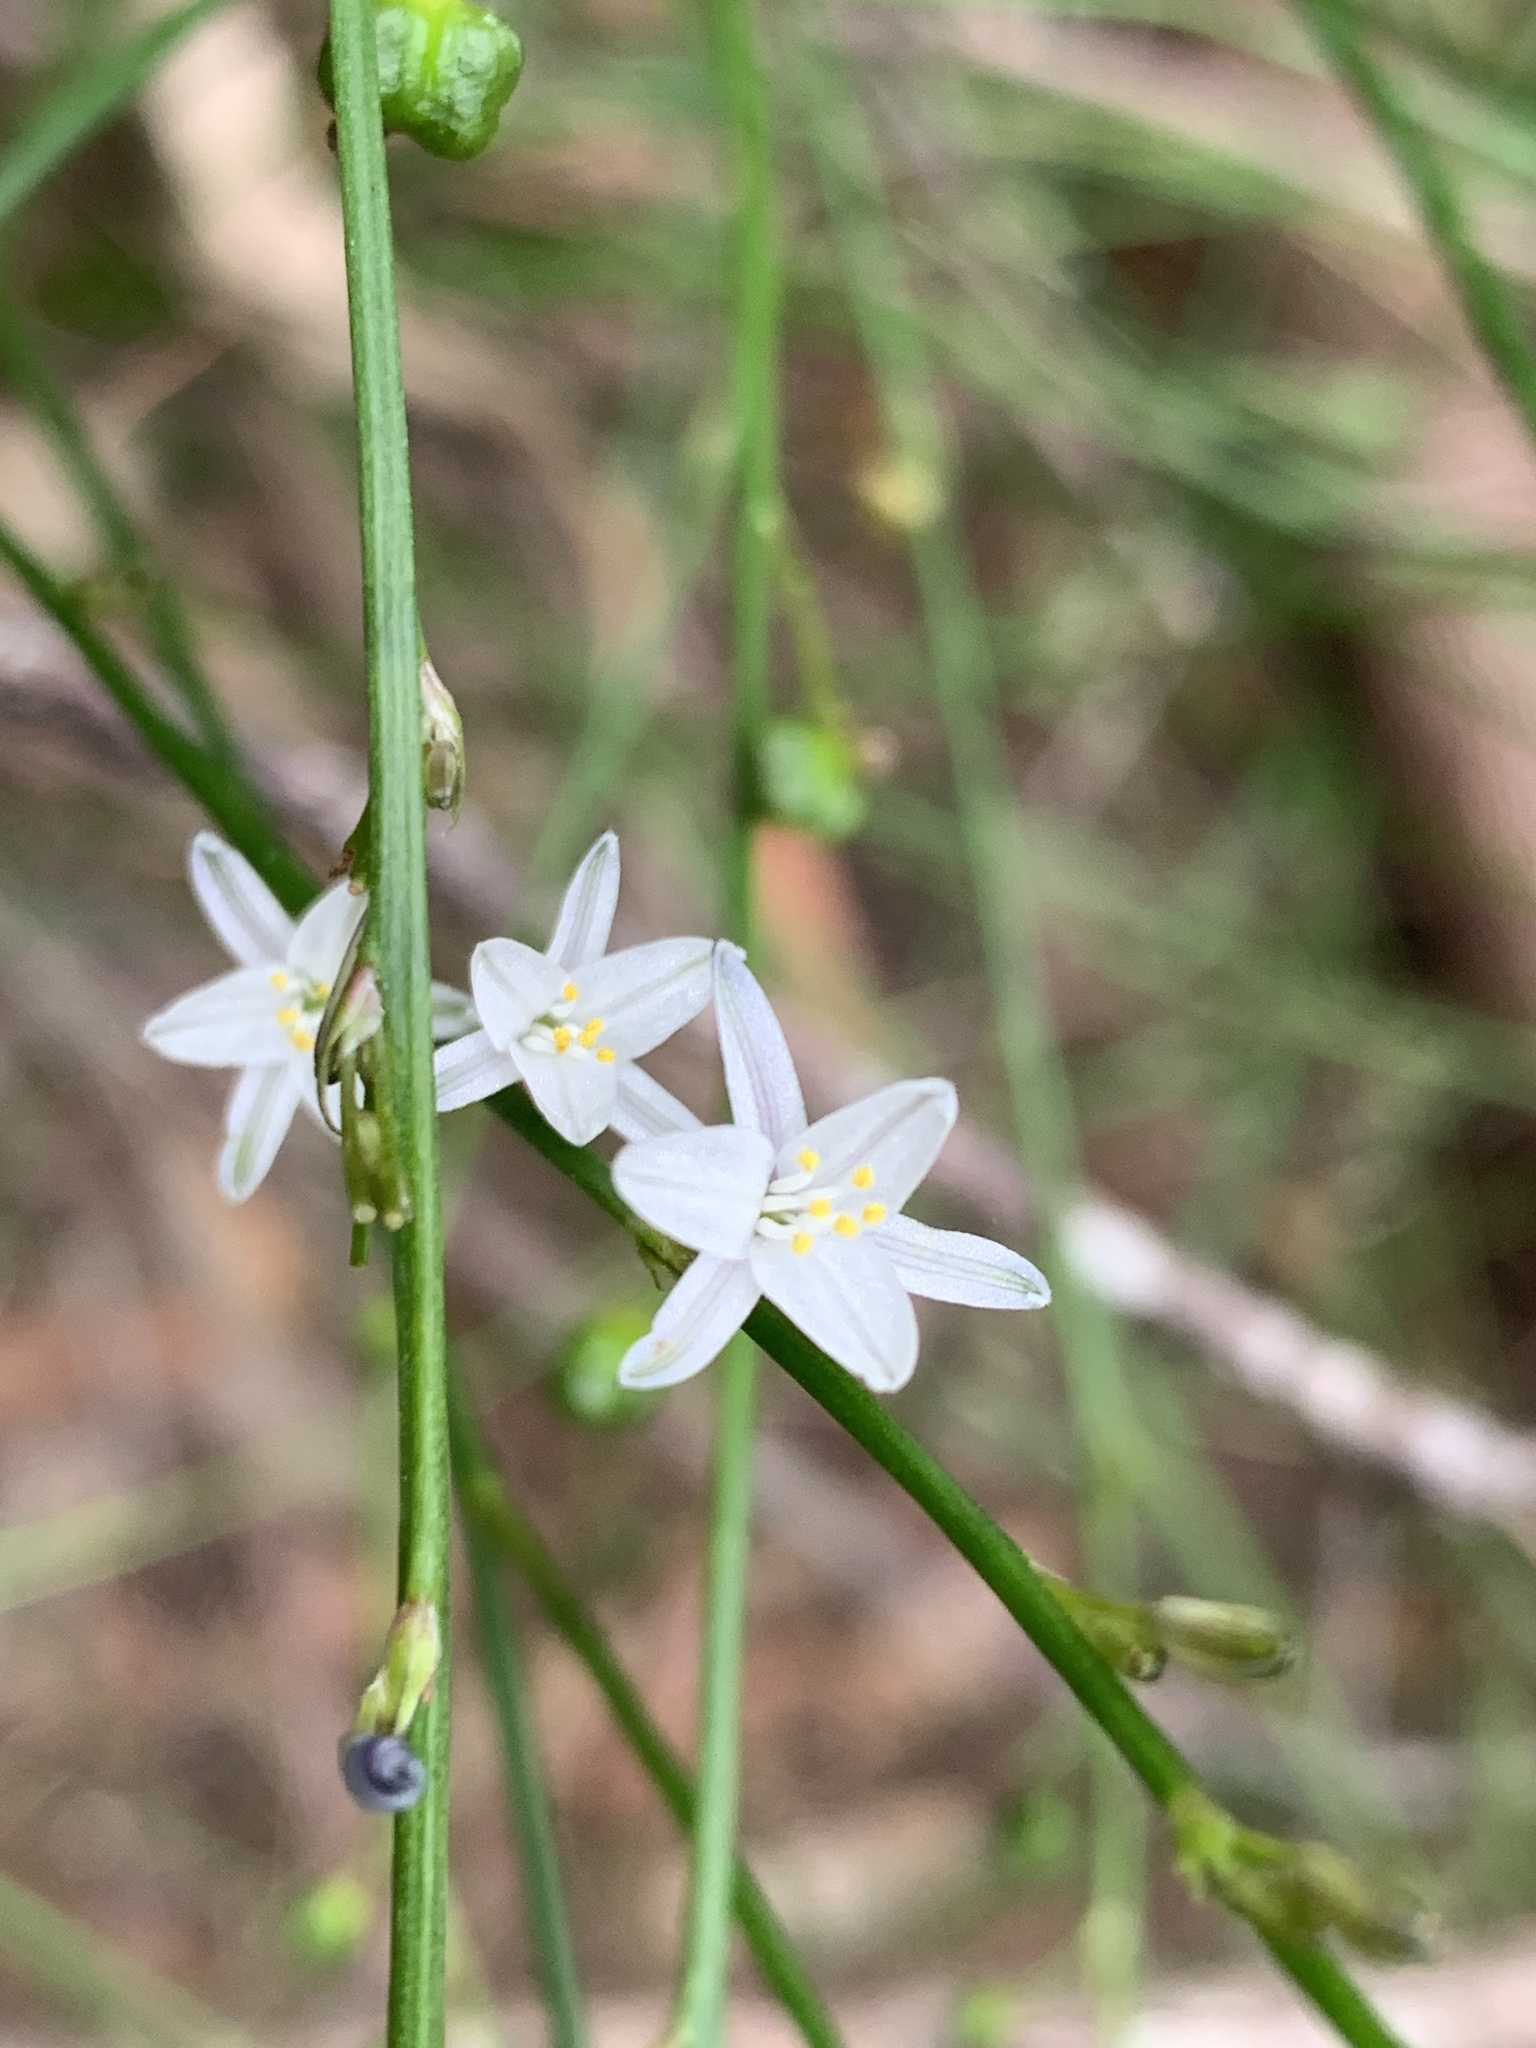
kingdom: Plantae
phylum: Tracheophyta
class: Liliopsida
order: Asparagales
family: Asphodelaceae
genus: Caesia
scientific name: Caesia parviflora
